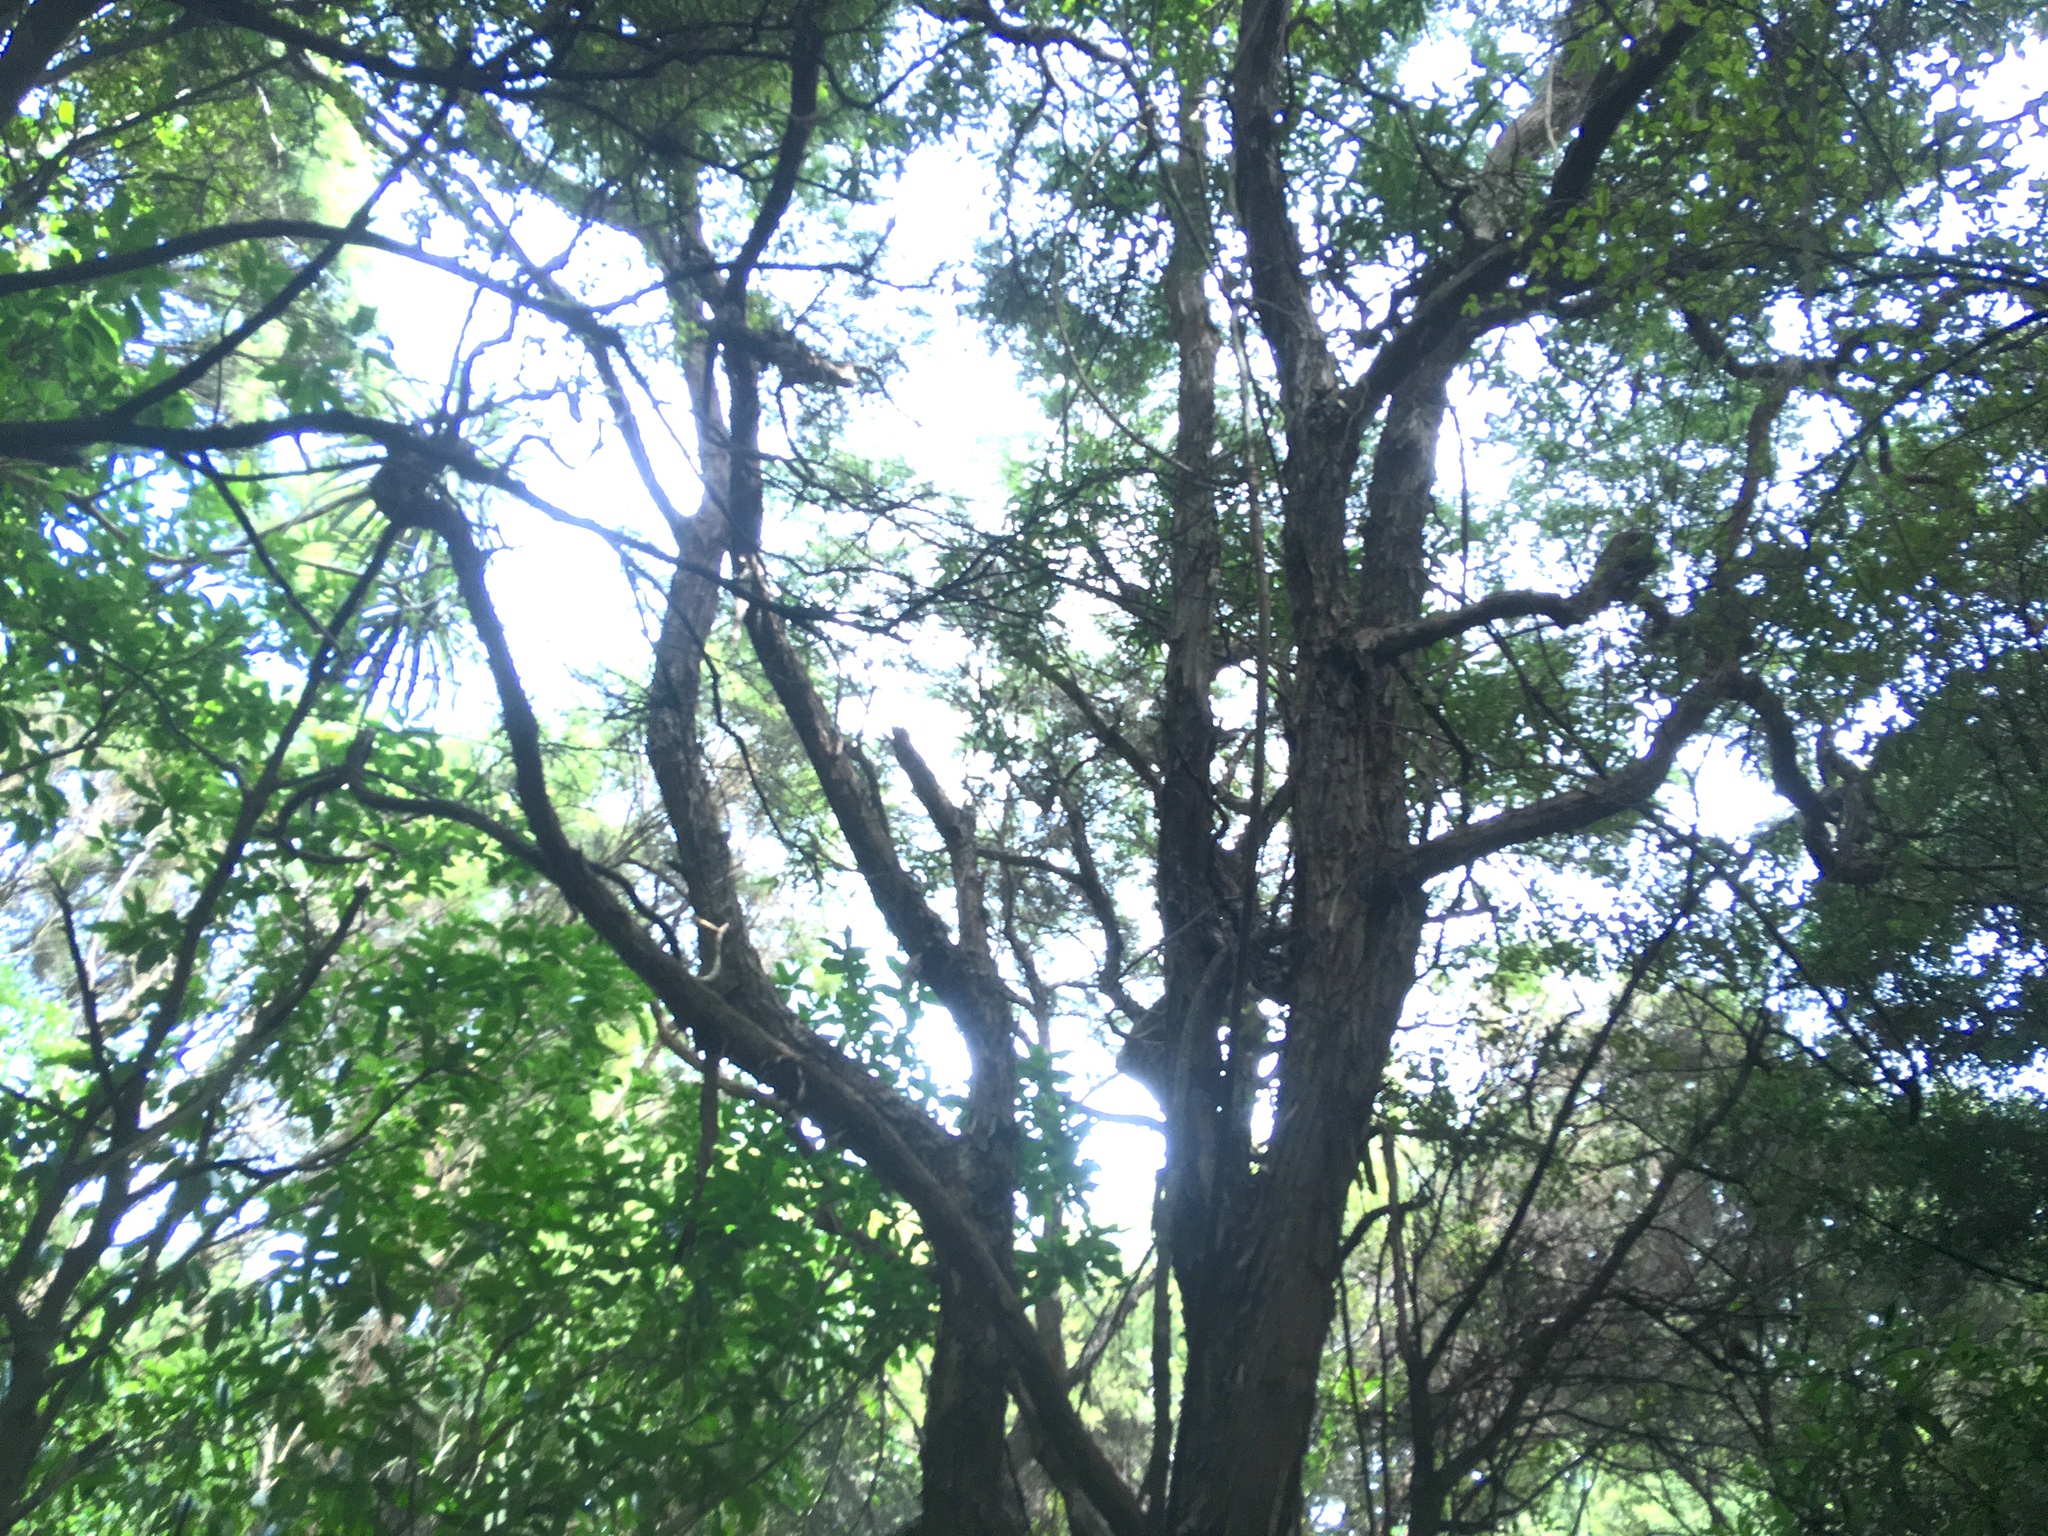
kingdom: Plantae
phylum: Tracheophyta
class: Magnoliopsida
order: Rosales
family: Rosaceae
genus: Rubus
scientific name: Rubus cissoides
